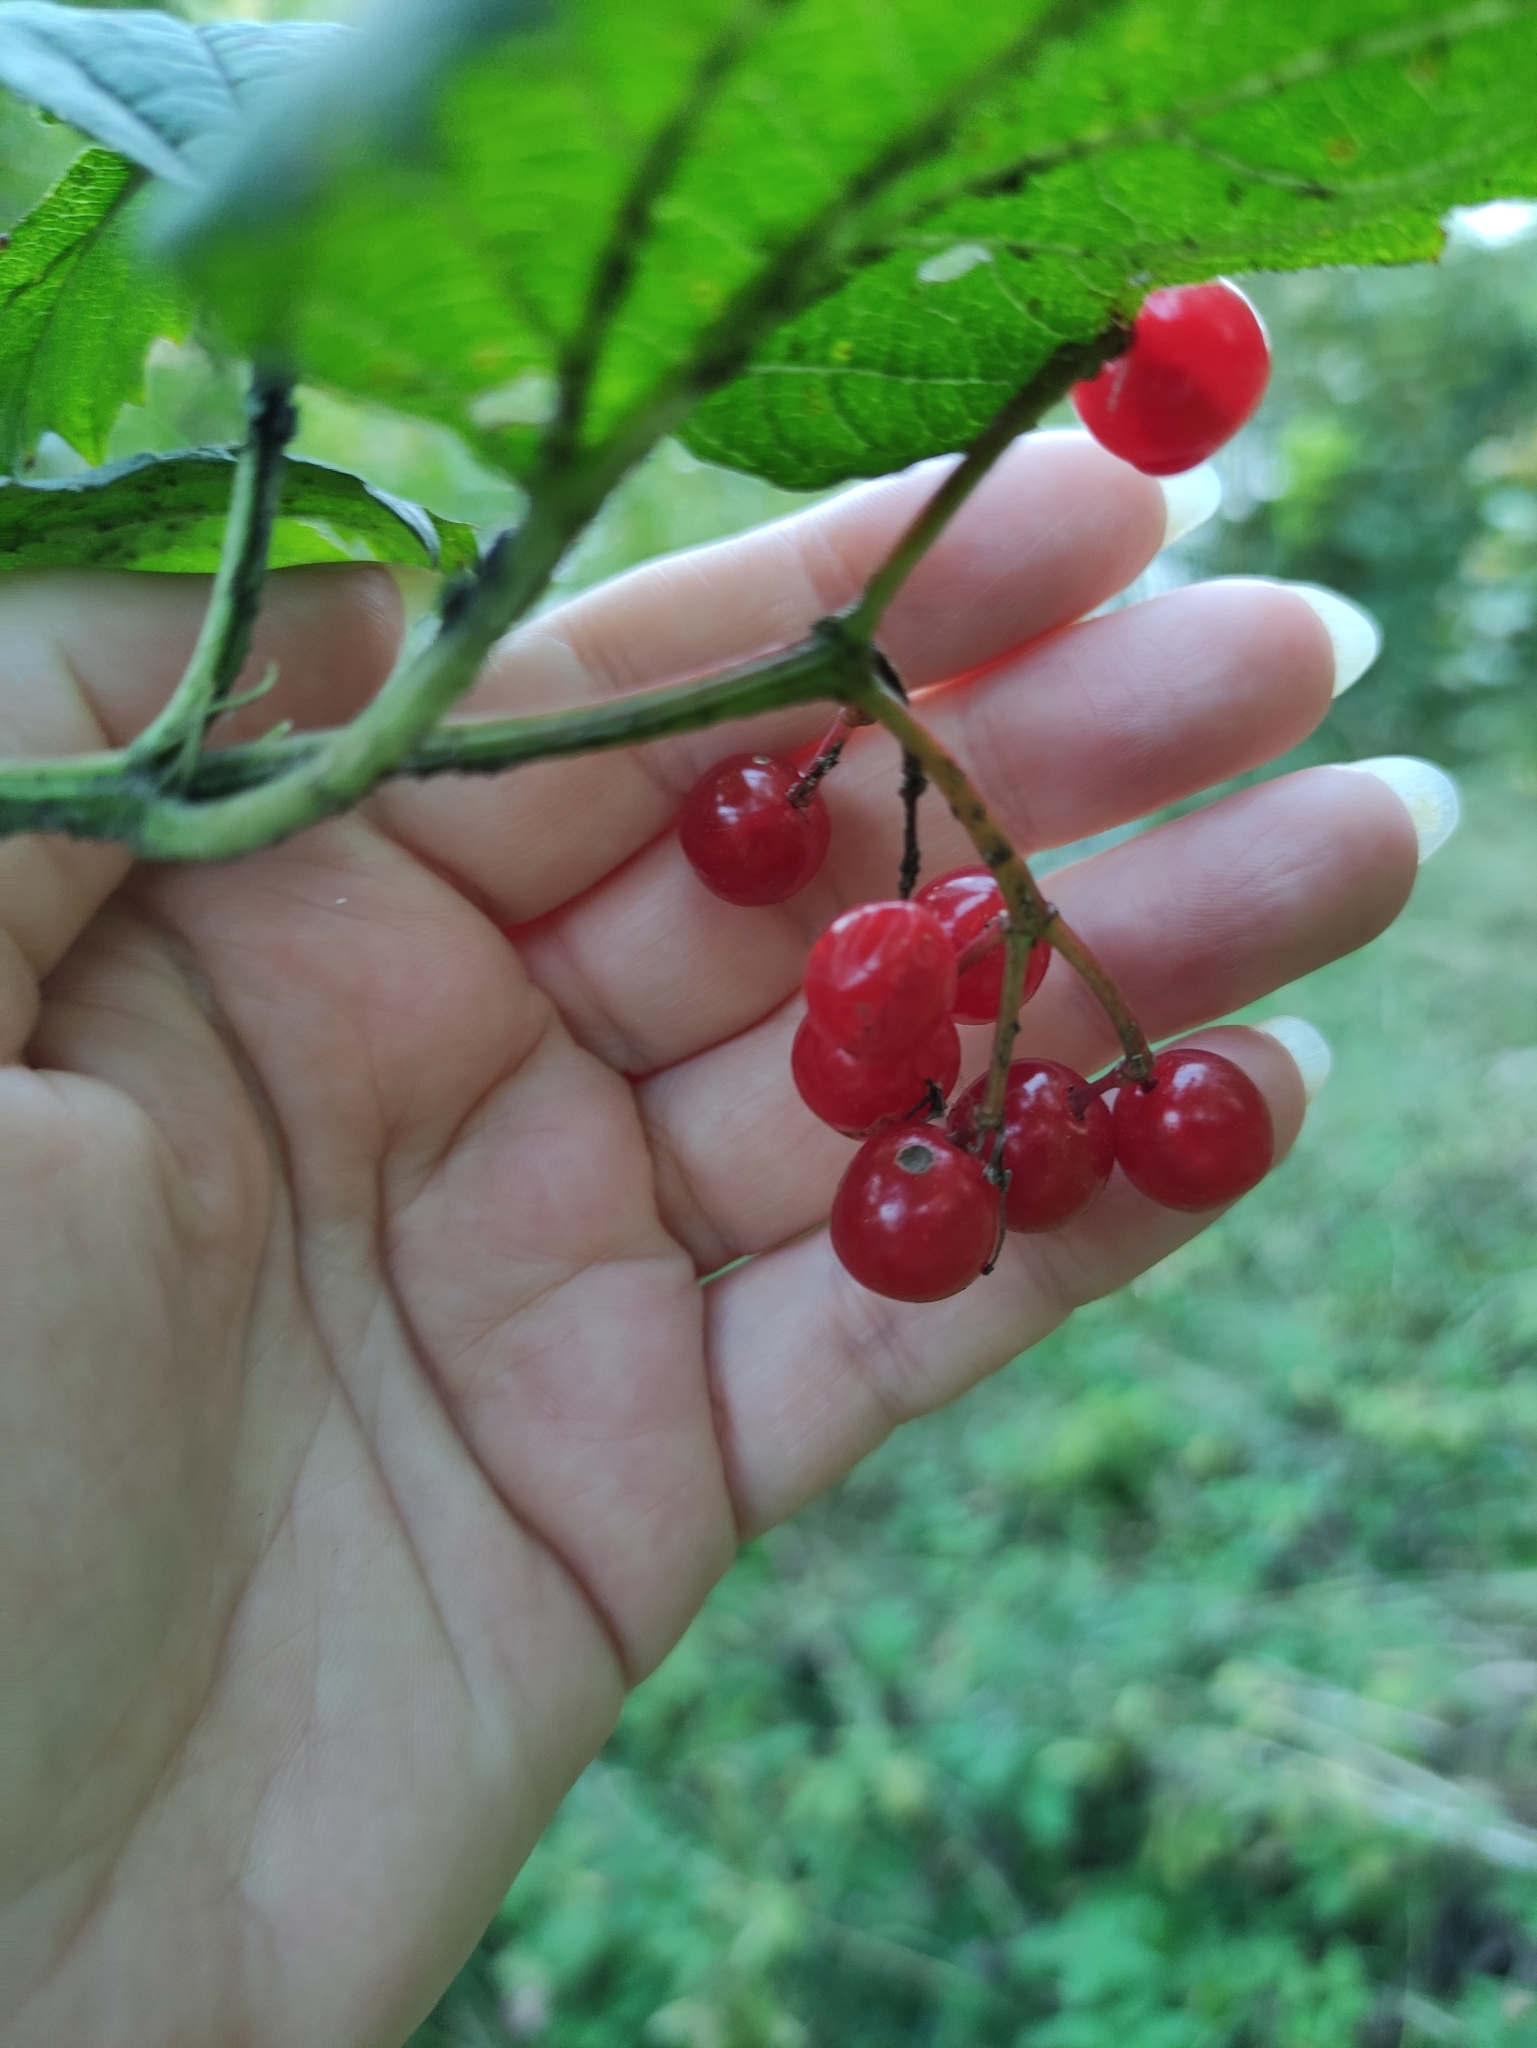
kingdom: Plantae
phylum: Tracheophyta
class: Magnoliopsida
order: Dipsacales
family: Viburnaceae
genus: Viburnum
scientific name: Viburnum opulus
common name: Guelder-rose
